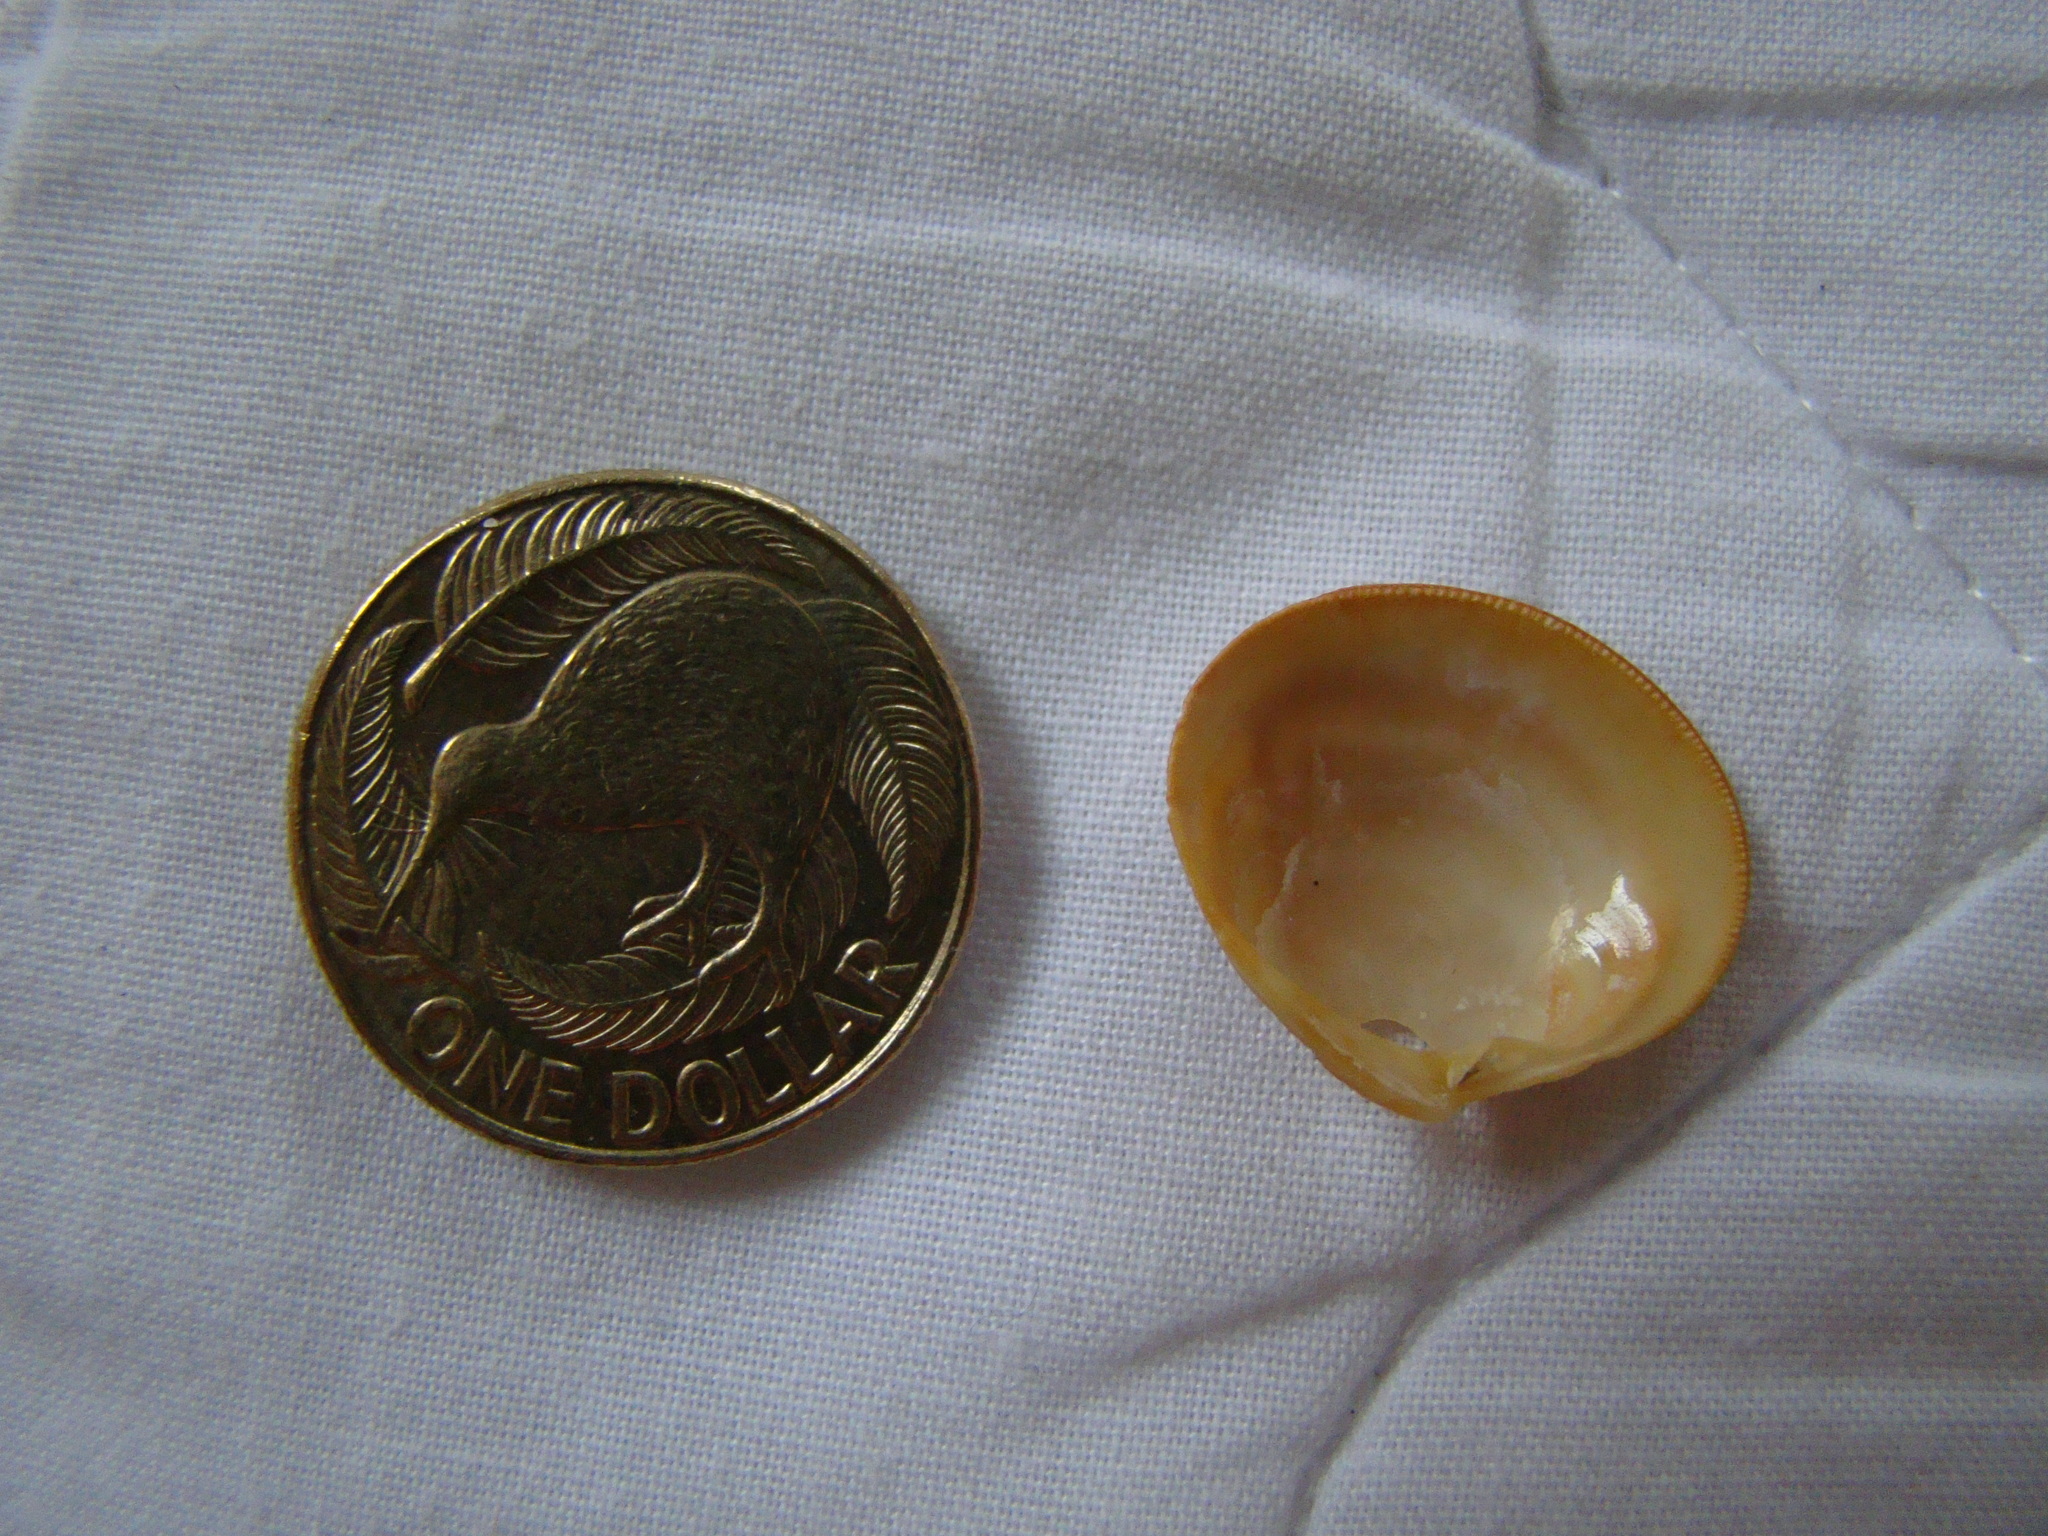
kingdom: Animalia
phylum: Mollusca
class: Bivalvia
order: Venerida
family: Veneridae
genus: Tawera
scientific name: Tawera spissa
